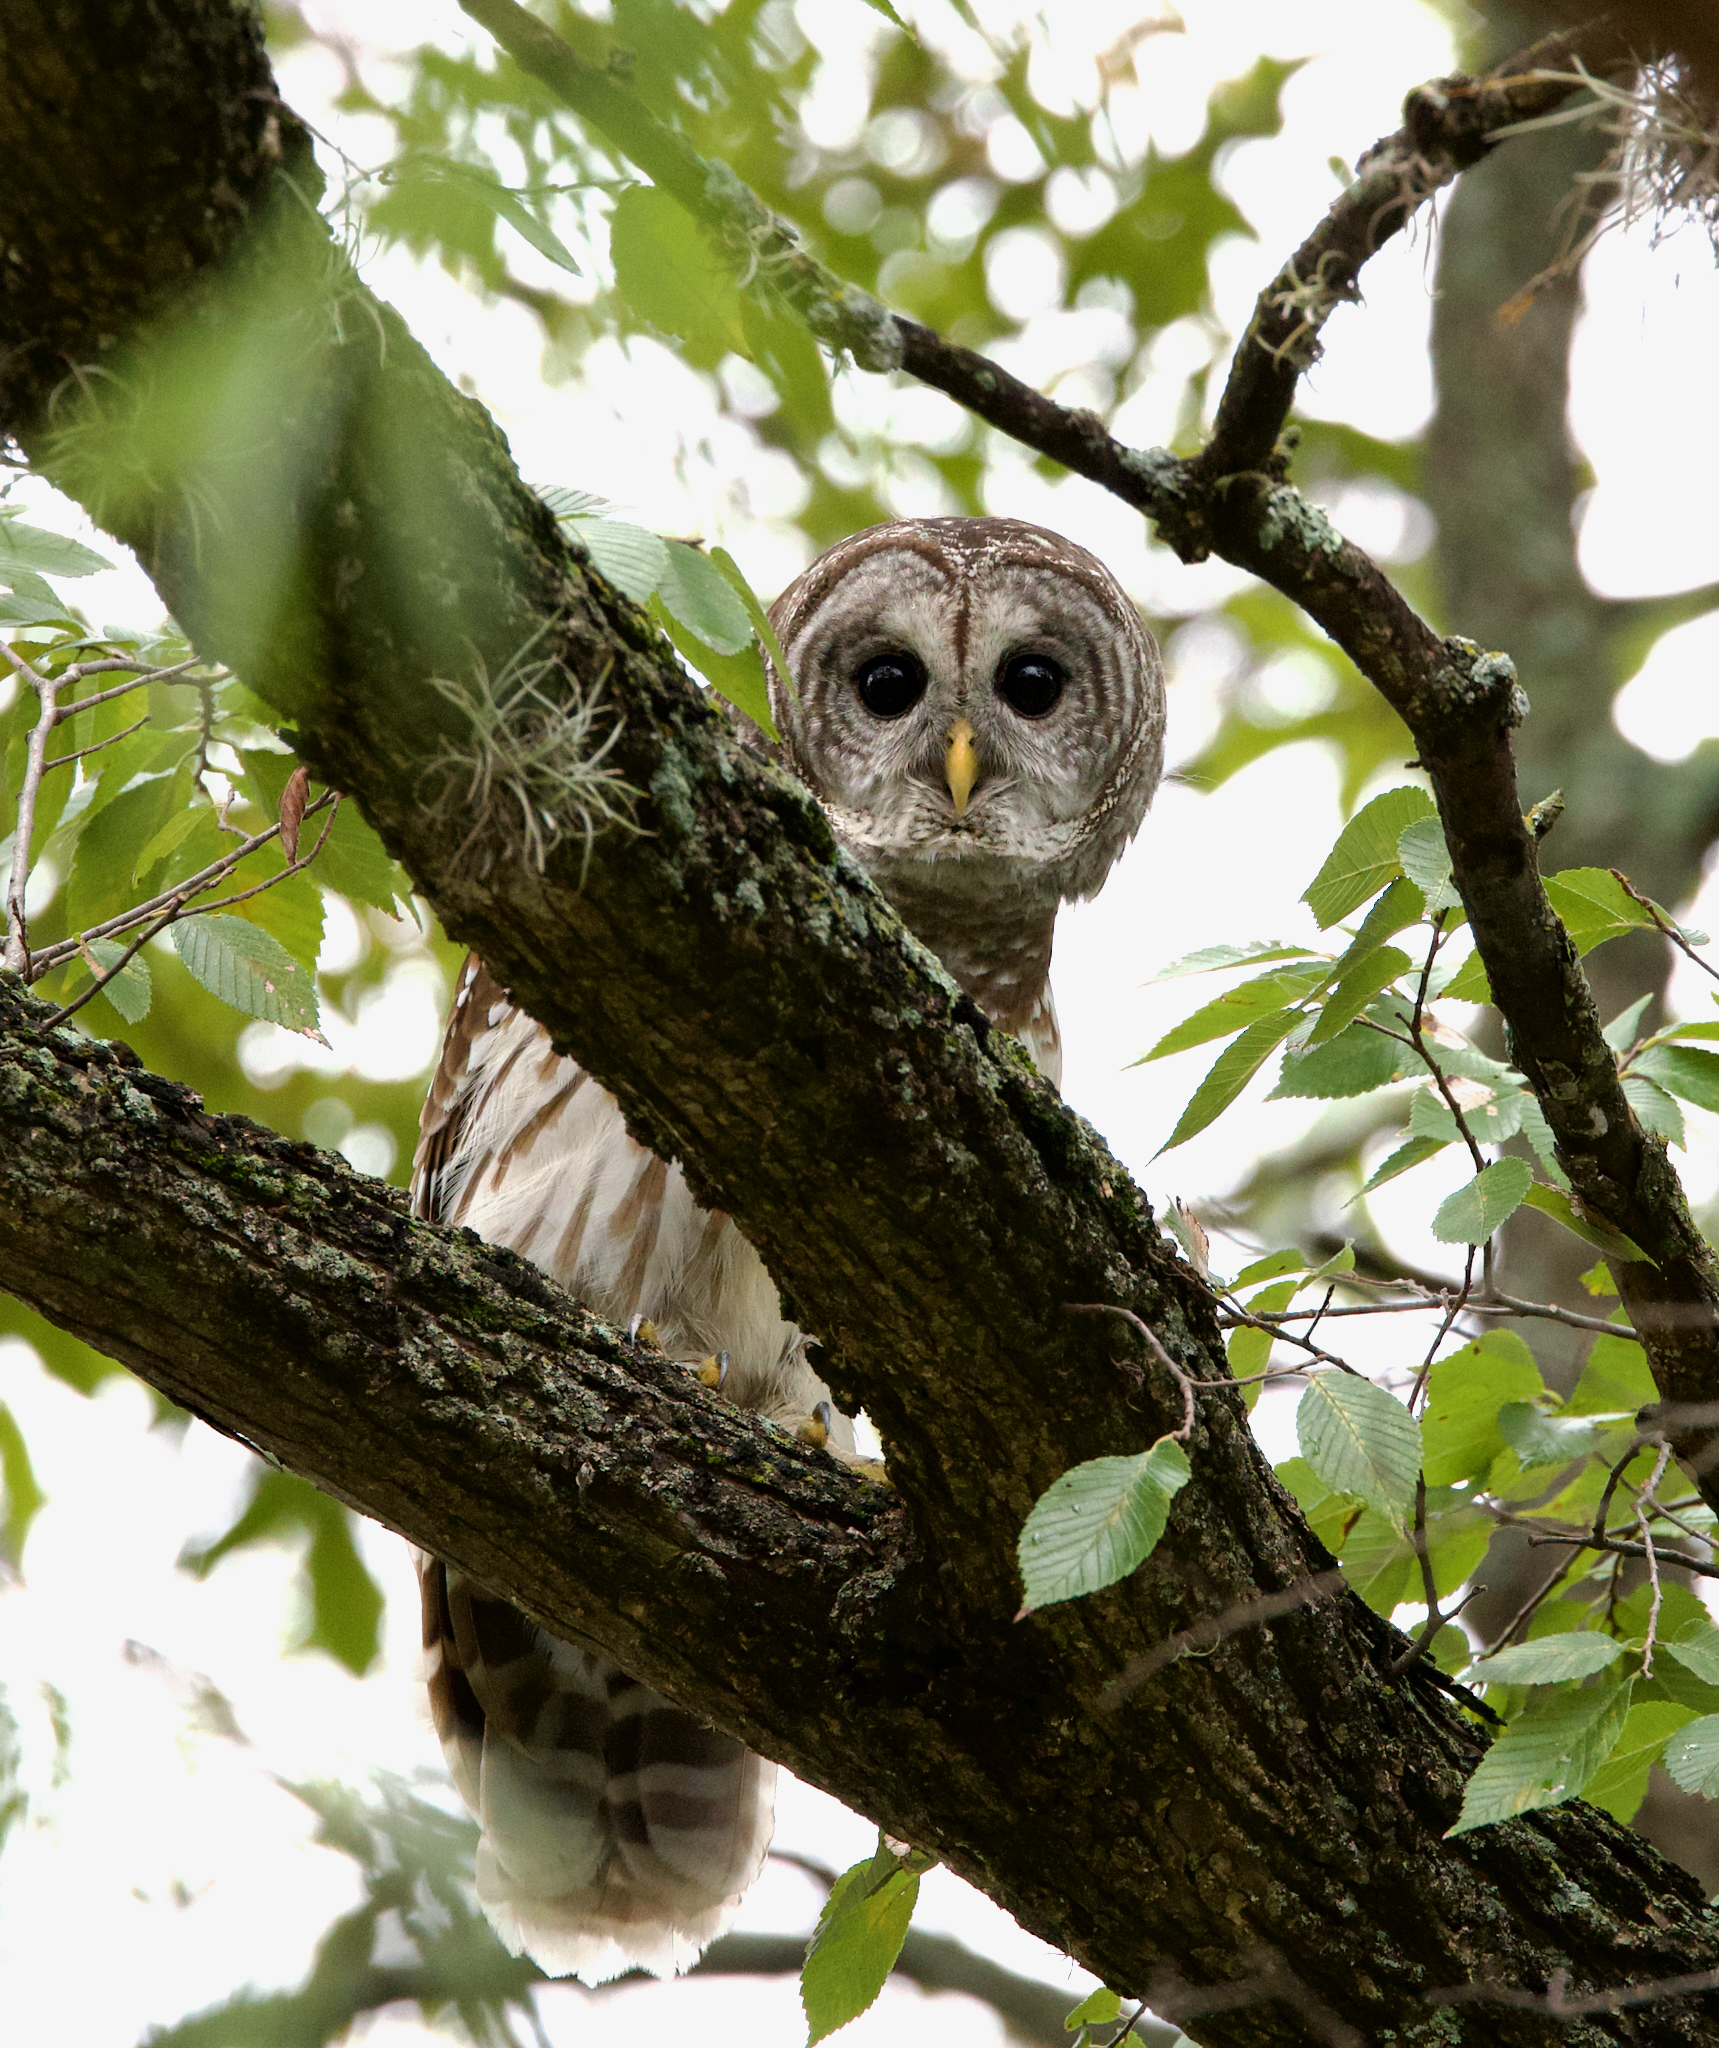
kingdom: Animalia
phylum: Chordata
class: Aves
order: Strigiformes
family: Strigidae
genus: Strix
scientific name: Strix varia
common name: Barred owl
